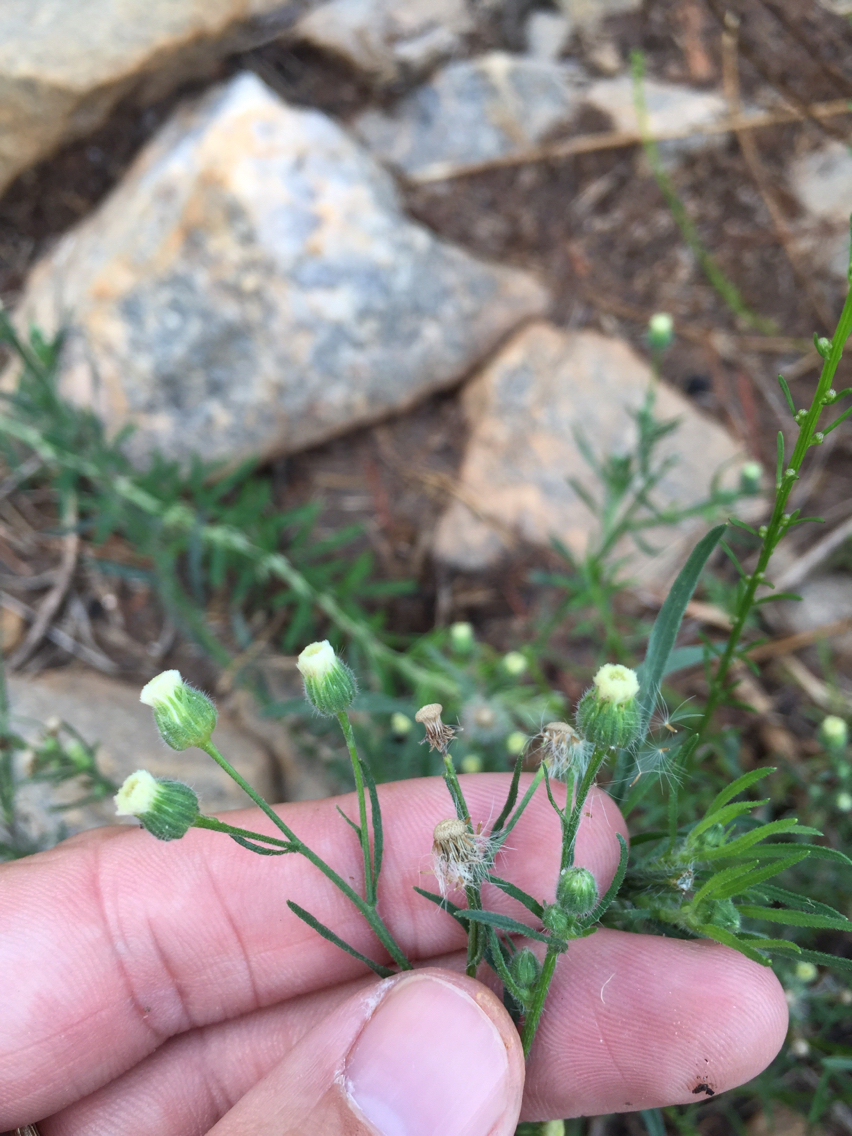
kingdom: Plantae
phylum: Tracheophyta
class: Magnoliopsida
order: Asterales
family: Asteraceae
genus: Erigeron
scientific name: Erigeron bonariensis
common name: Argentine fleabane
